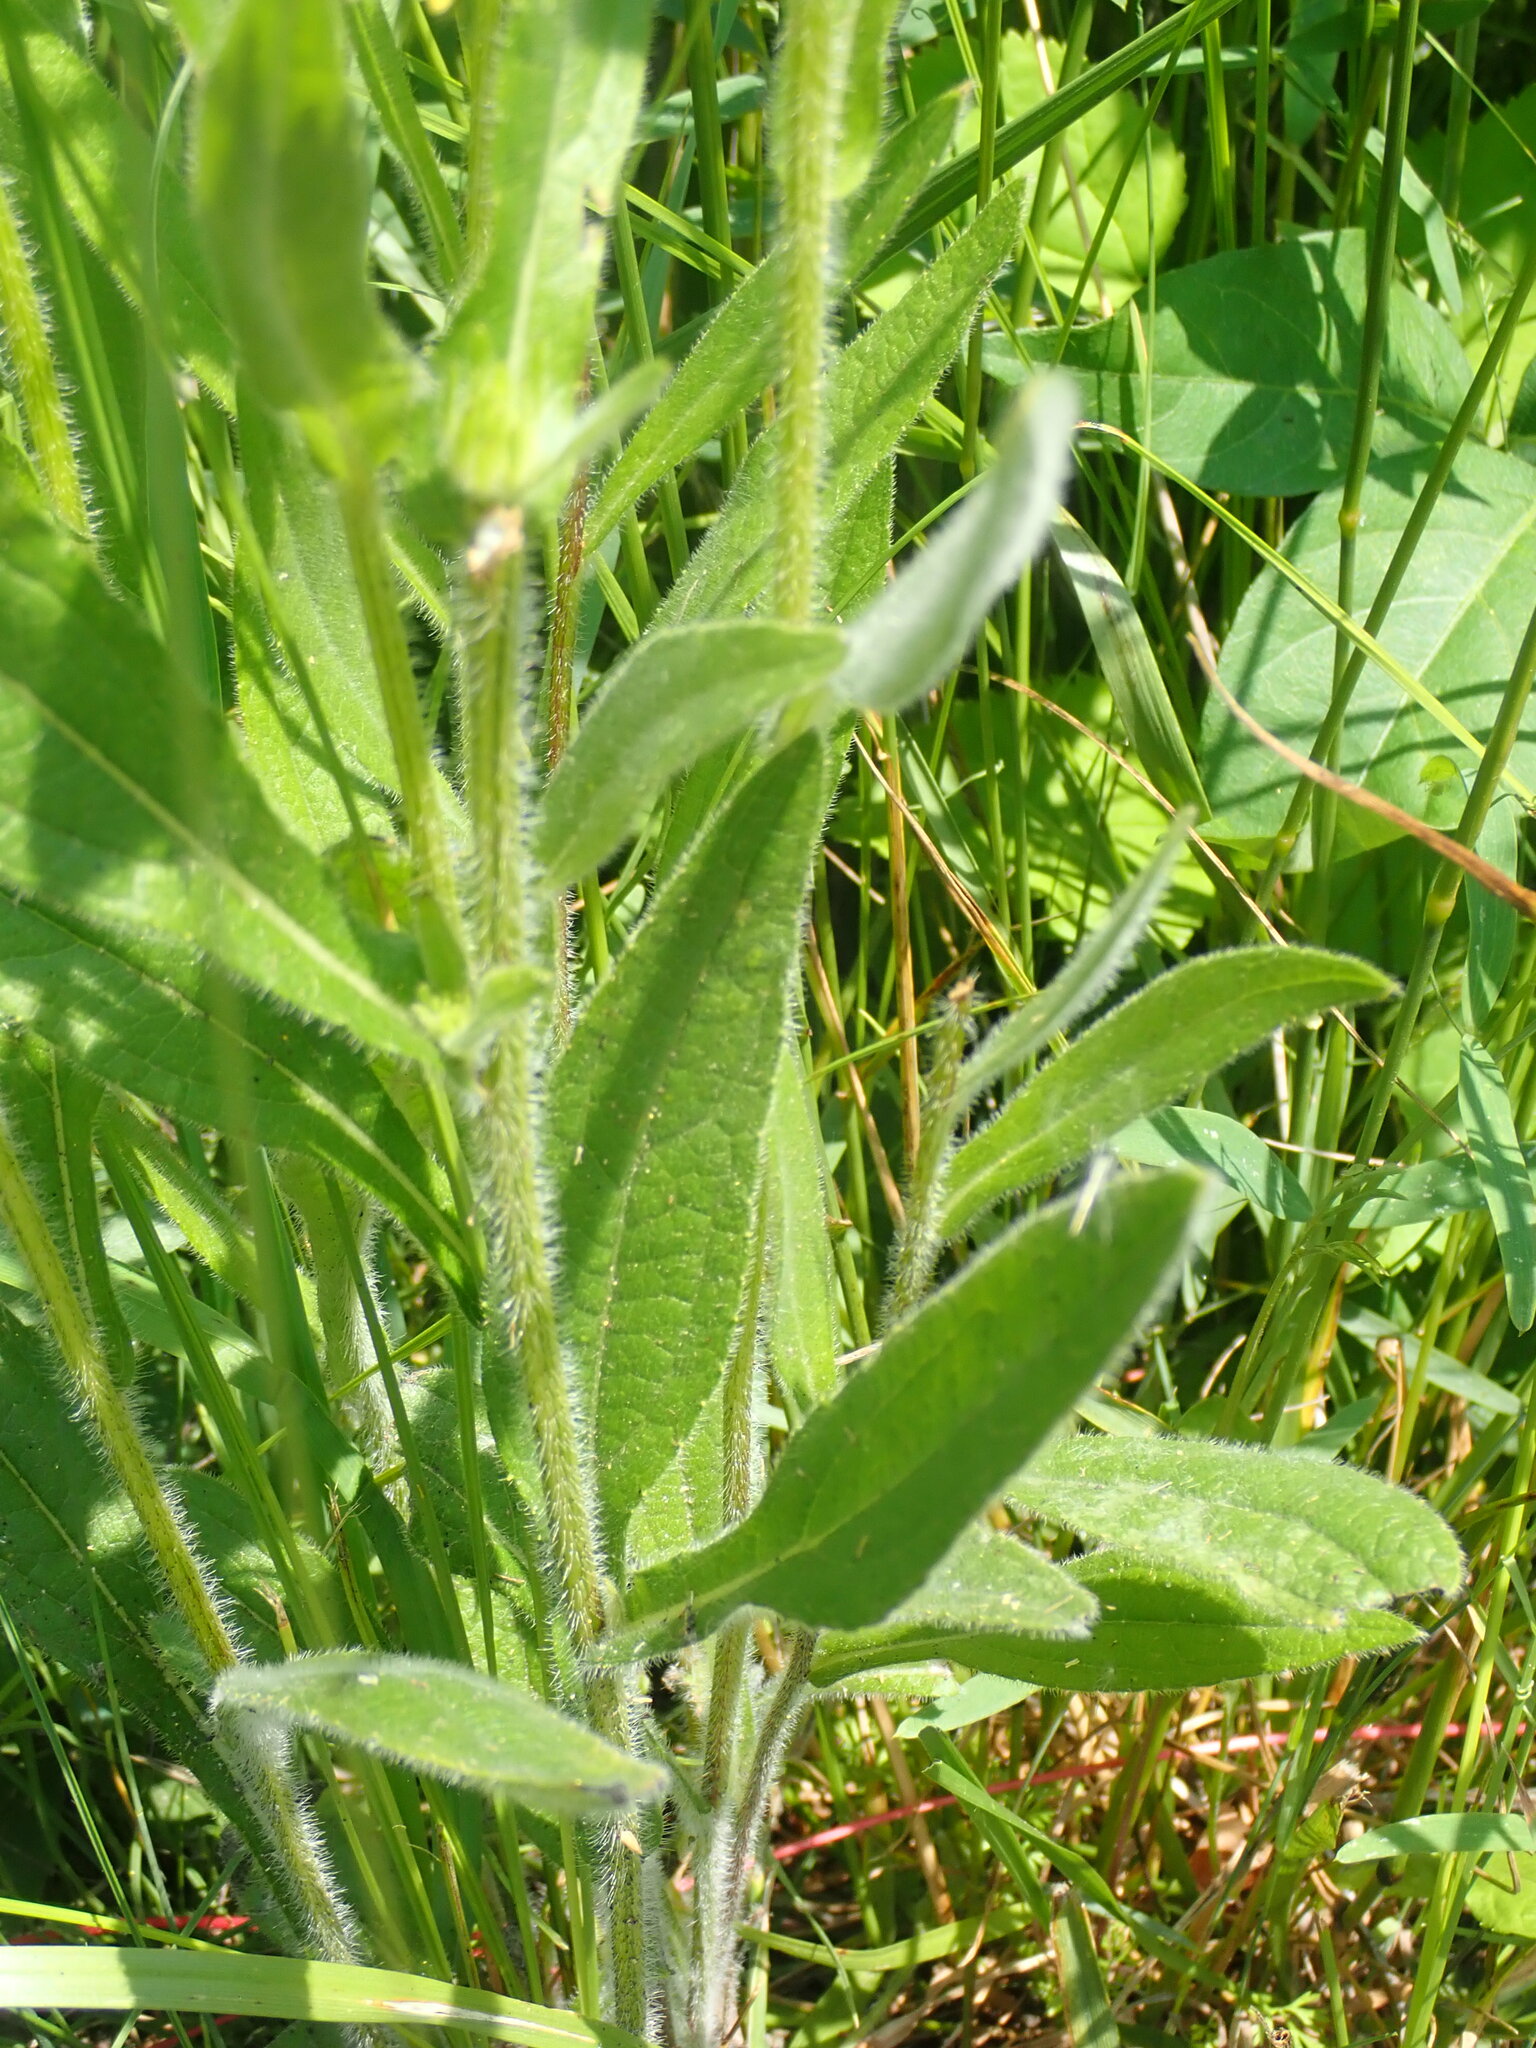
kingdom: Plantae
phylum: Tracheophyta
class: Magnoliopsida
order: Asterales
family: Asteraceae
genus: Rudbeckia
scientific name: Rudbeckia hirta
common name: Black-eyed-susan
